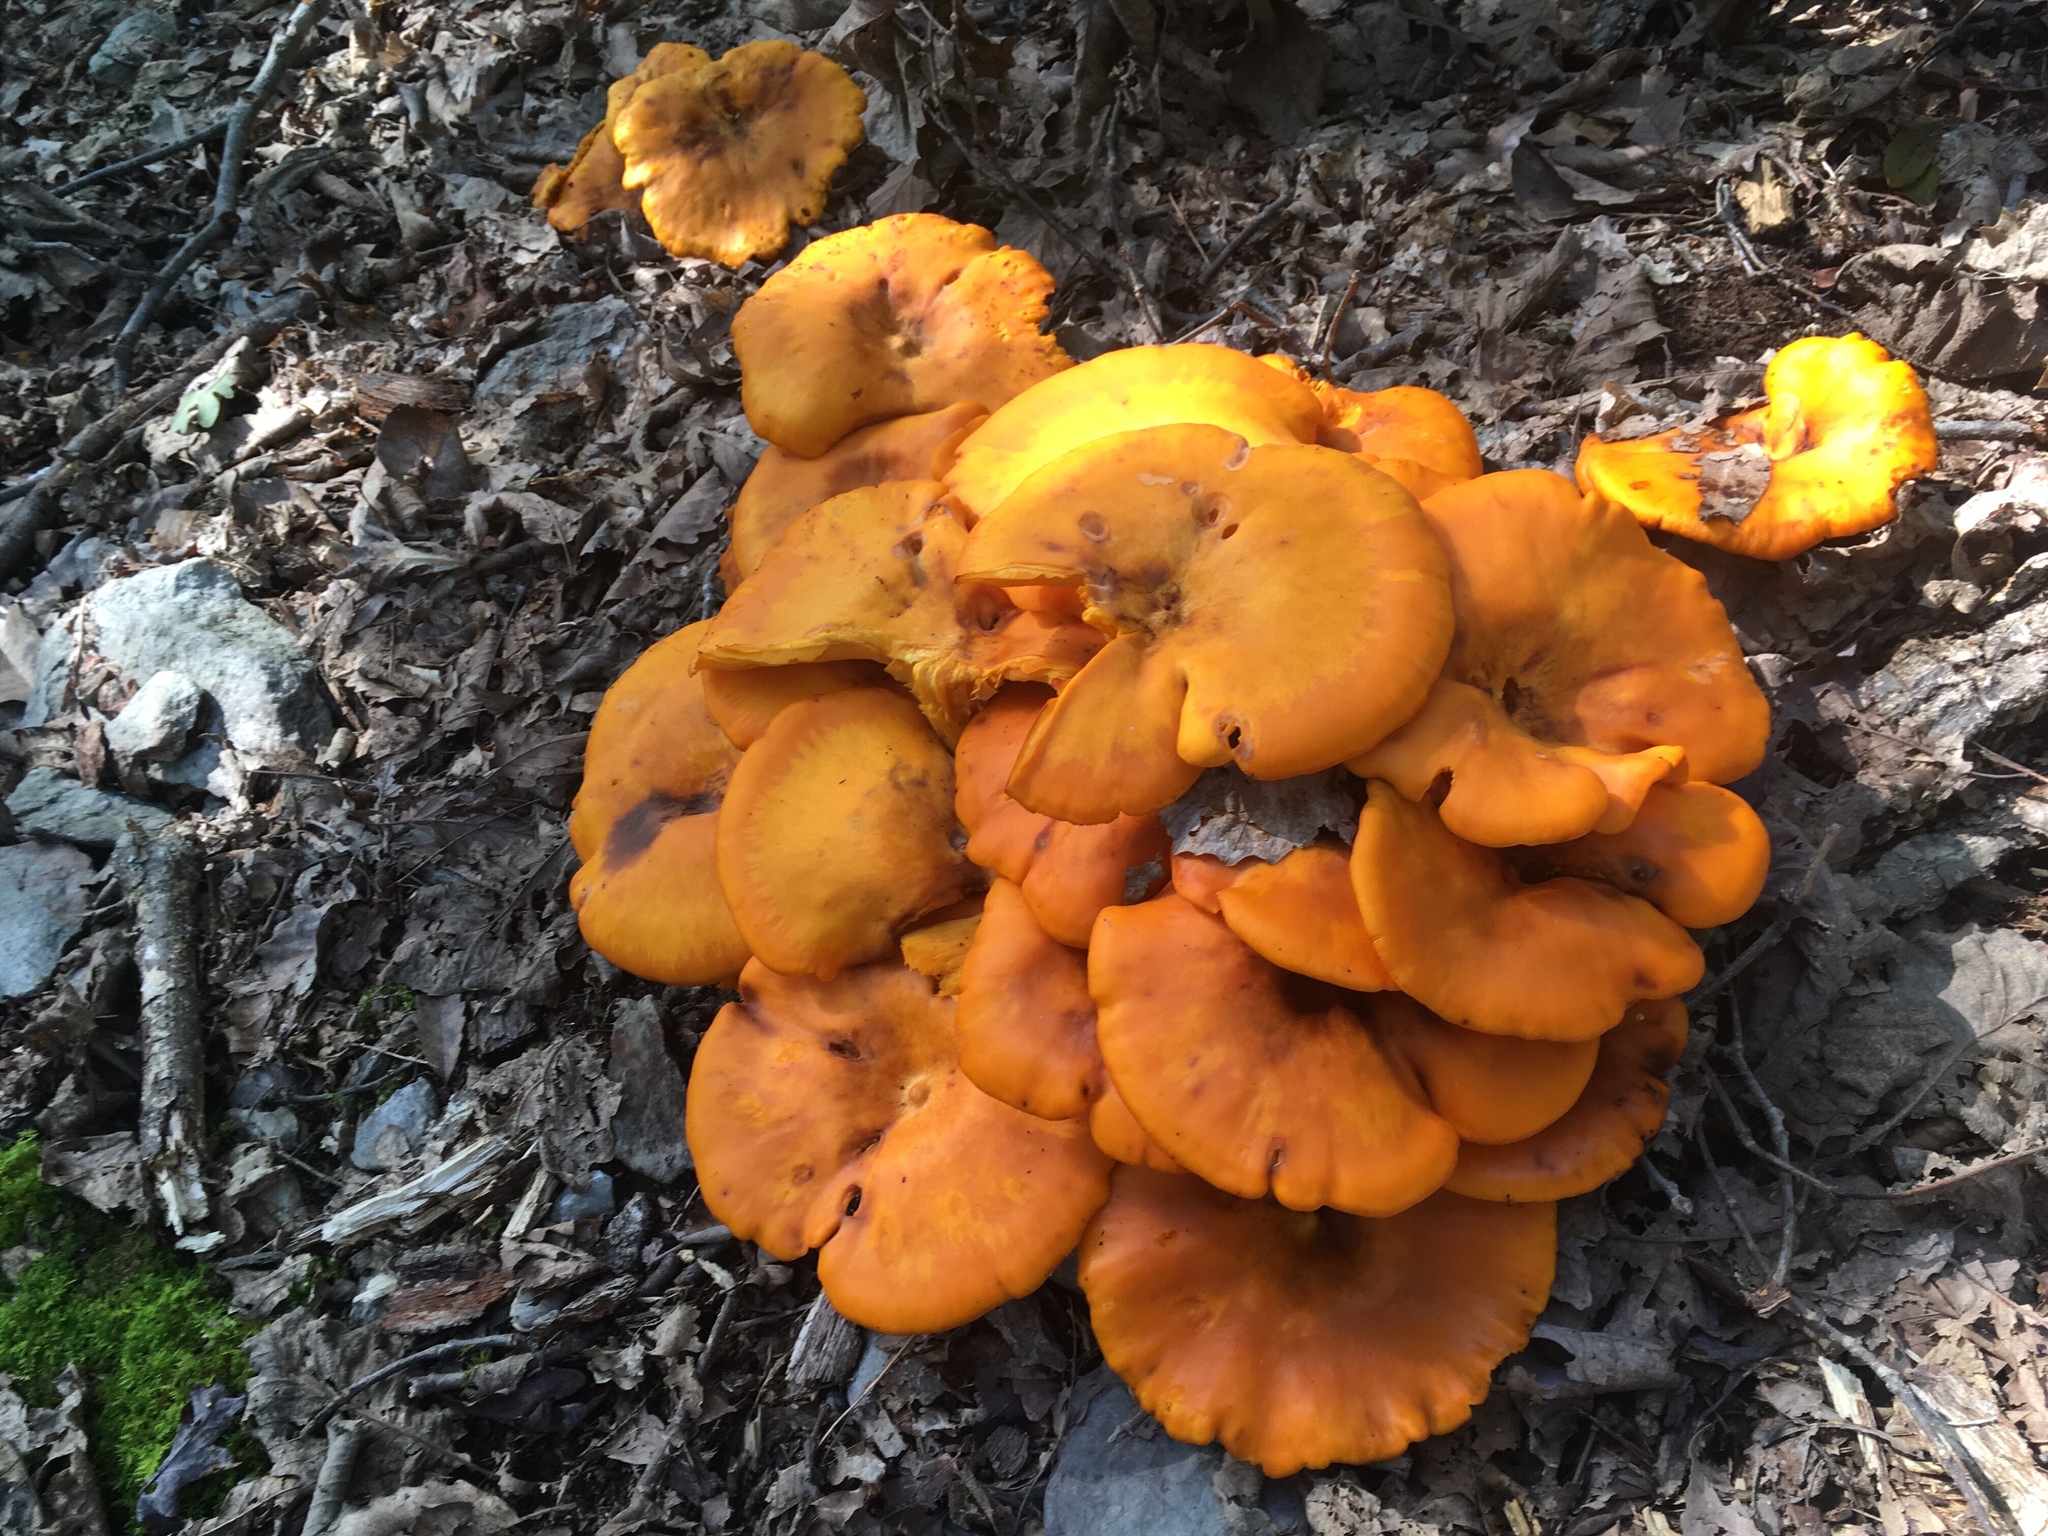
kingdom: Fungi
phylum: Basidiomycota
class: Agaricomycetes
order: Agaricales
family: Omphalotaceae
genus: Omphalotus
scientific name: Omphalotus illudens
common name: Jack o lantern
